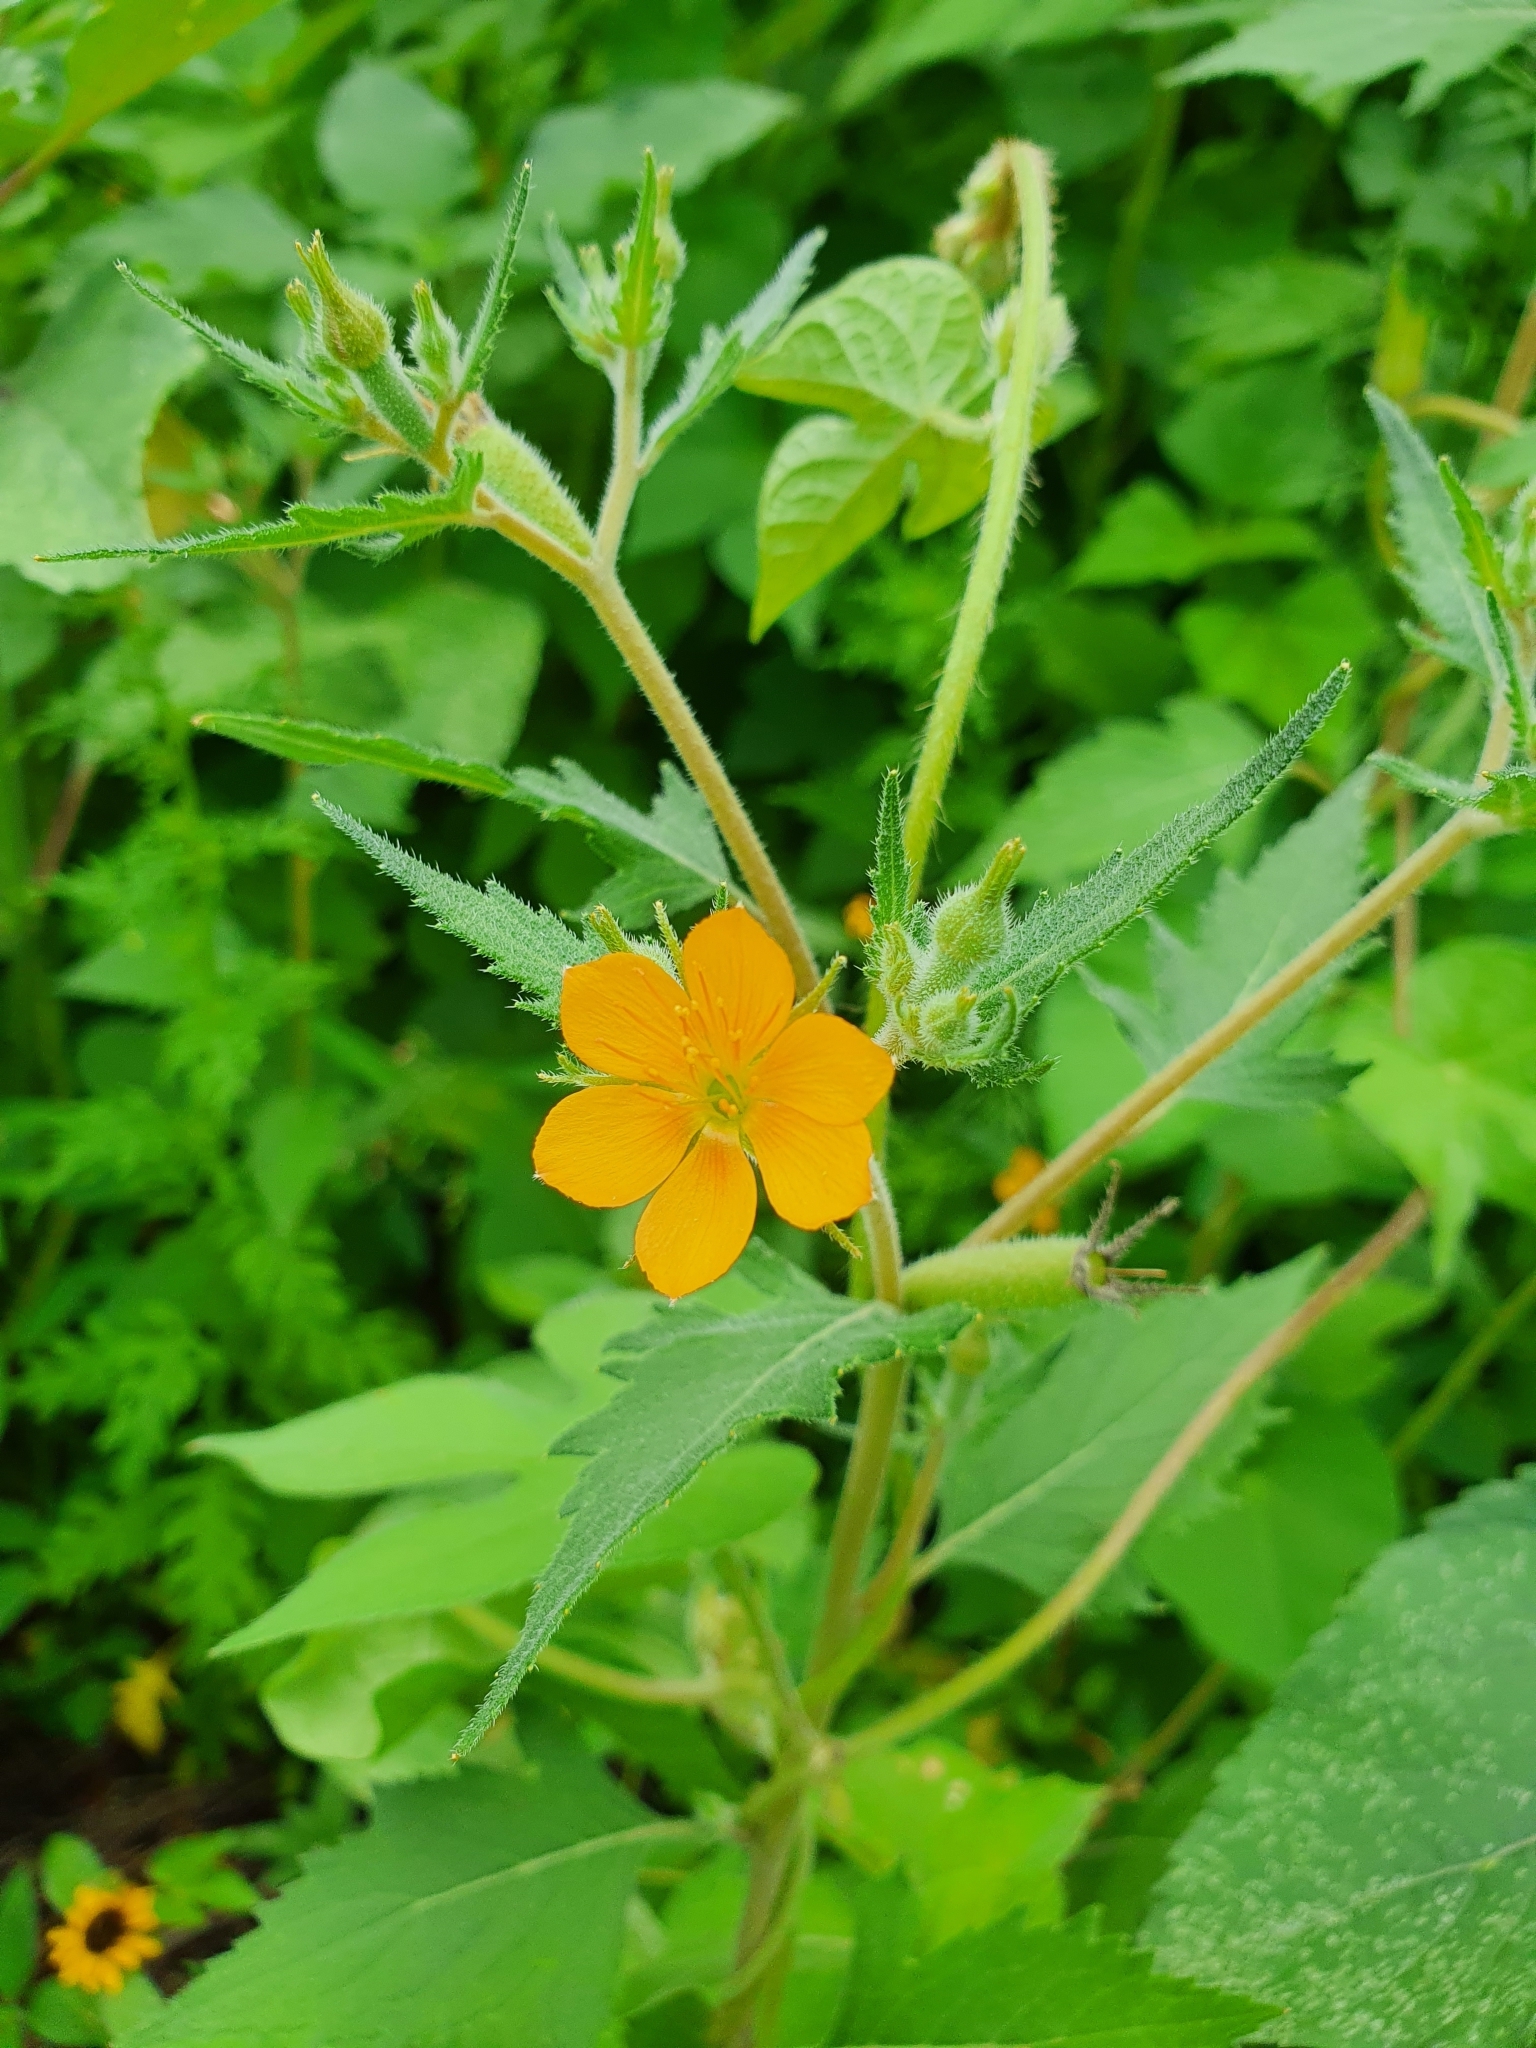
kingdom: Plantae
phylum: Tracheophyta
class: Magnoliopsida
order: Cornales
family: Loasaceae
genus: Mentzelia
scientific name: Mentzelia aspera
